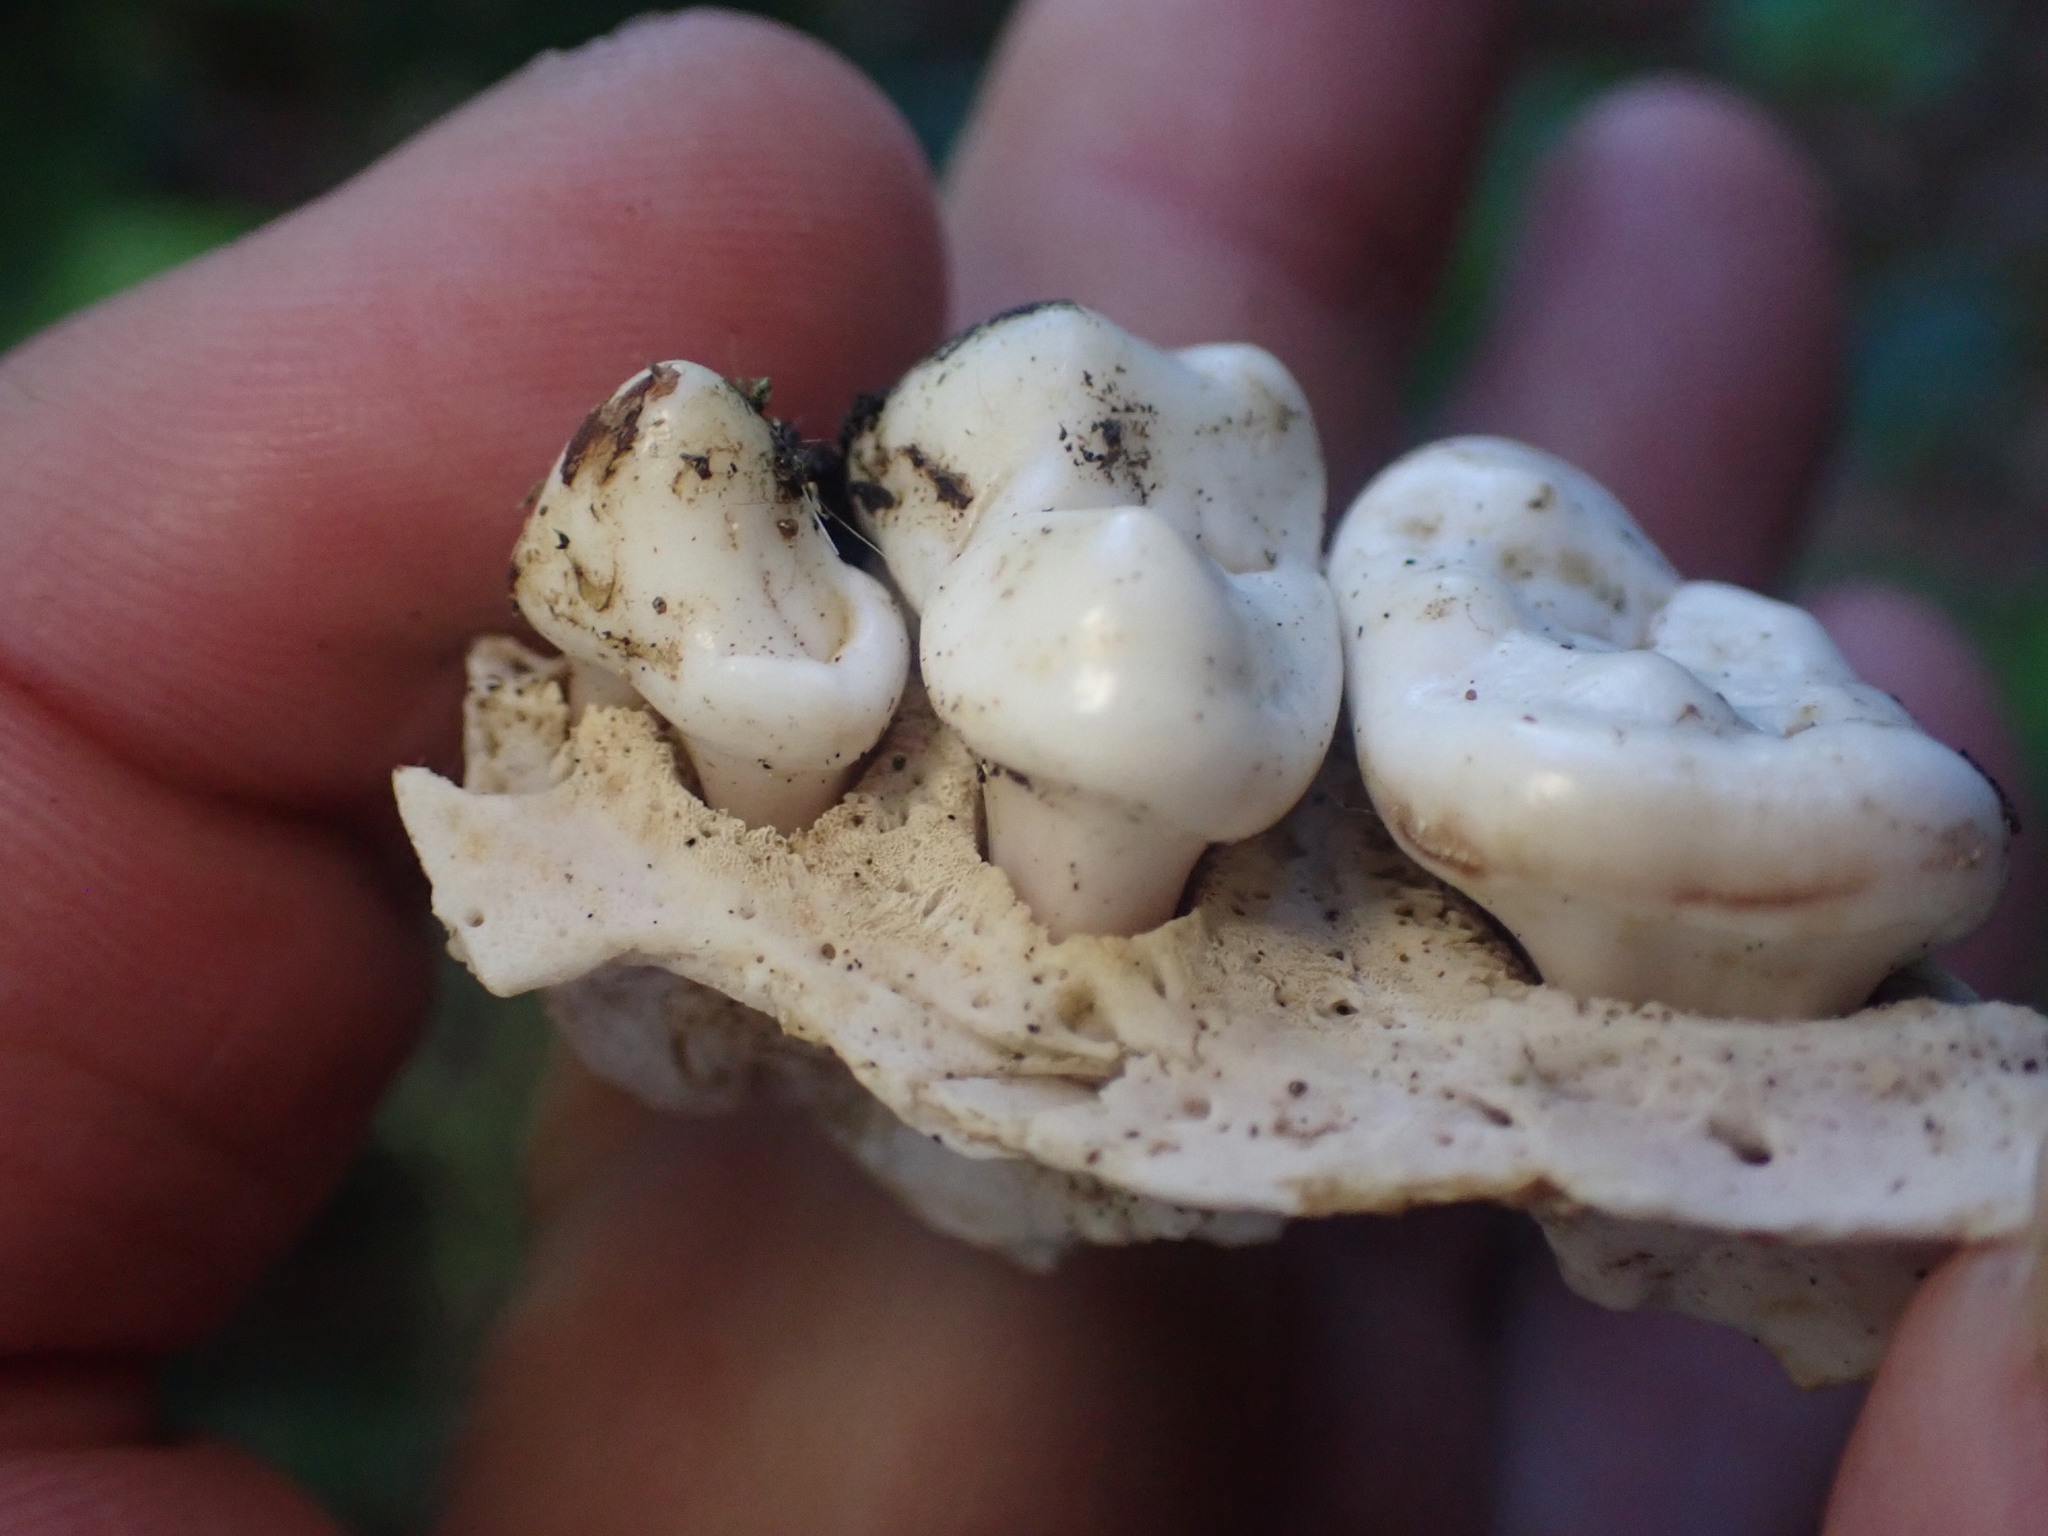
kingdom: Animalia
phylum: Chordata
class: Mammalia
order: Carnivora
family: Mustelidae
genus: Enhydra
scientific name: Enhydra lutris
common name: Sea otter
